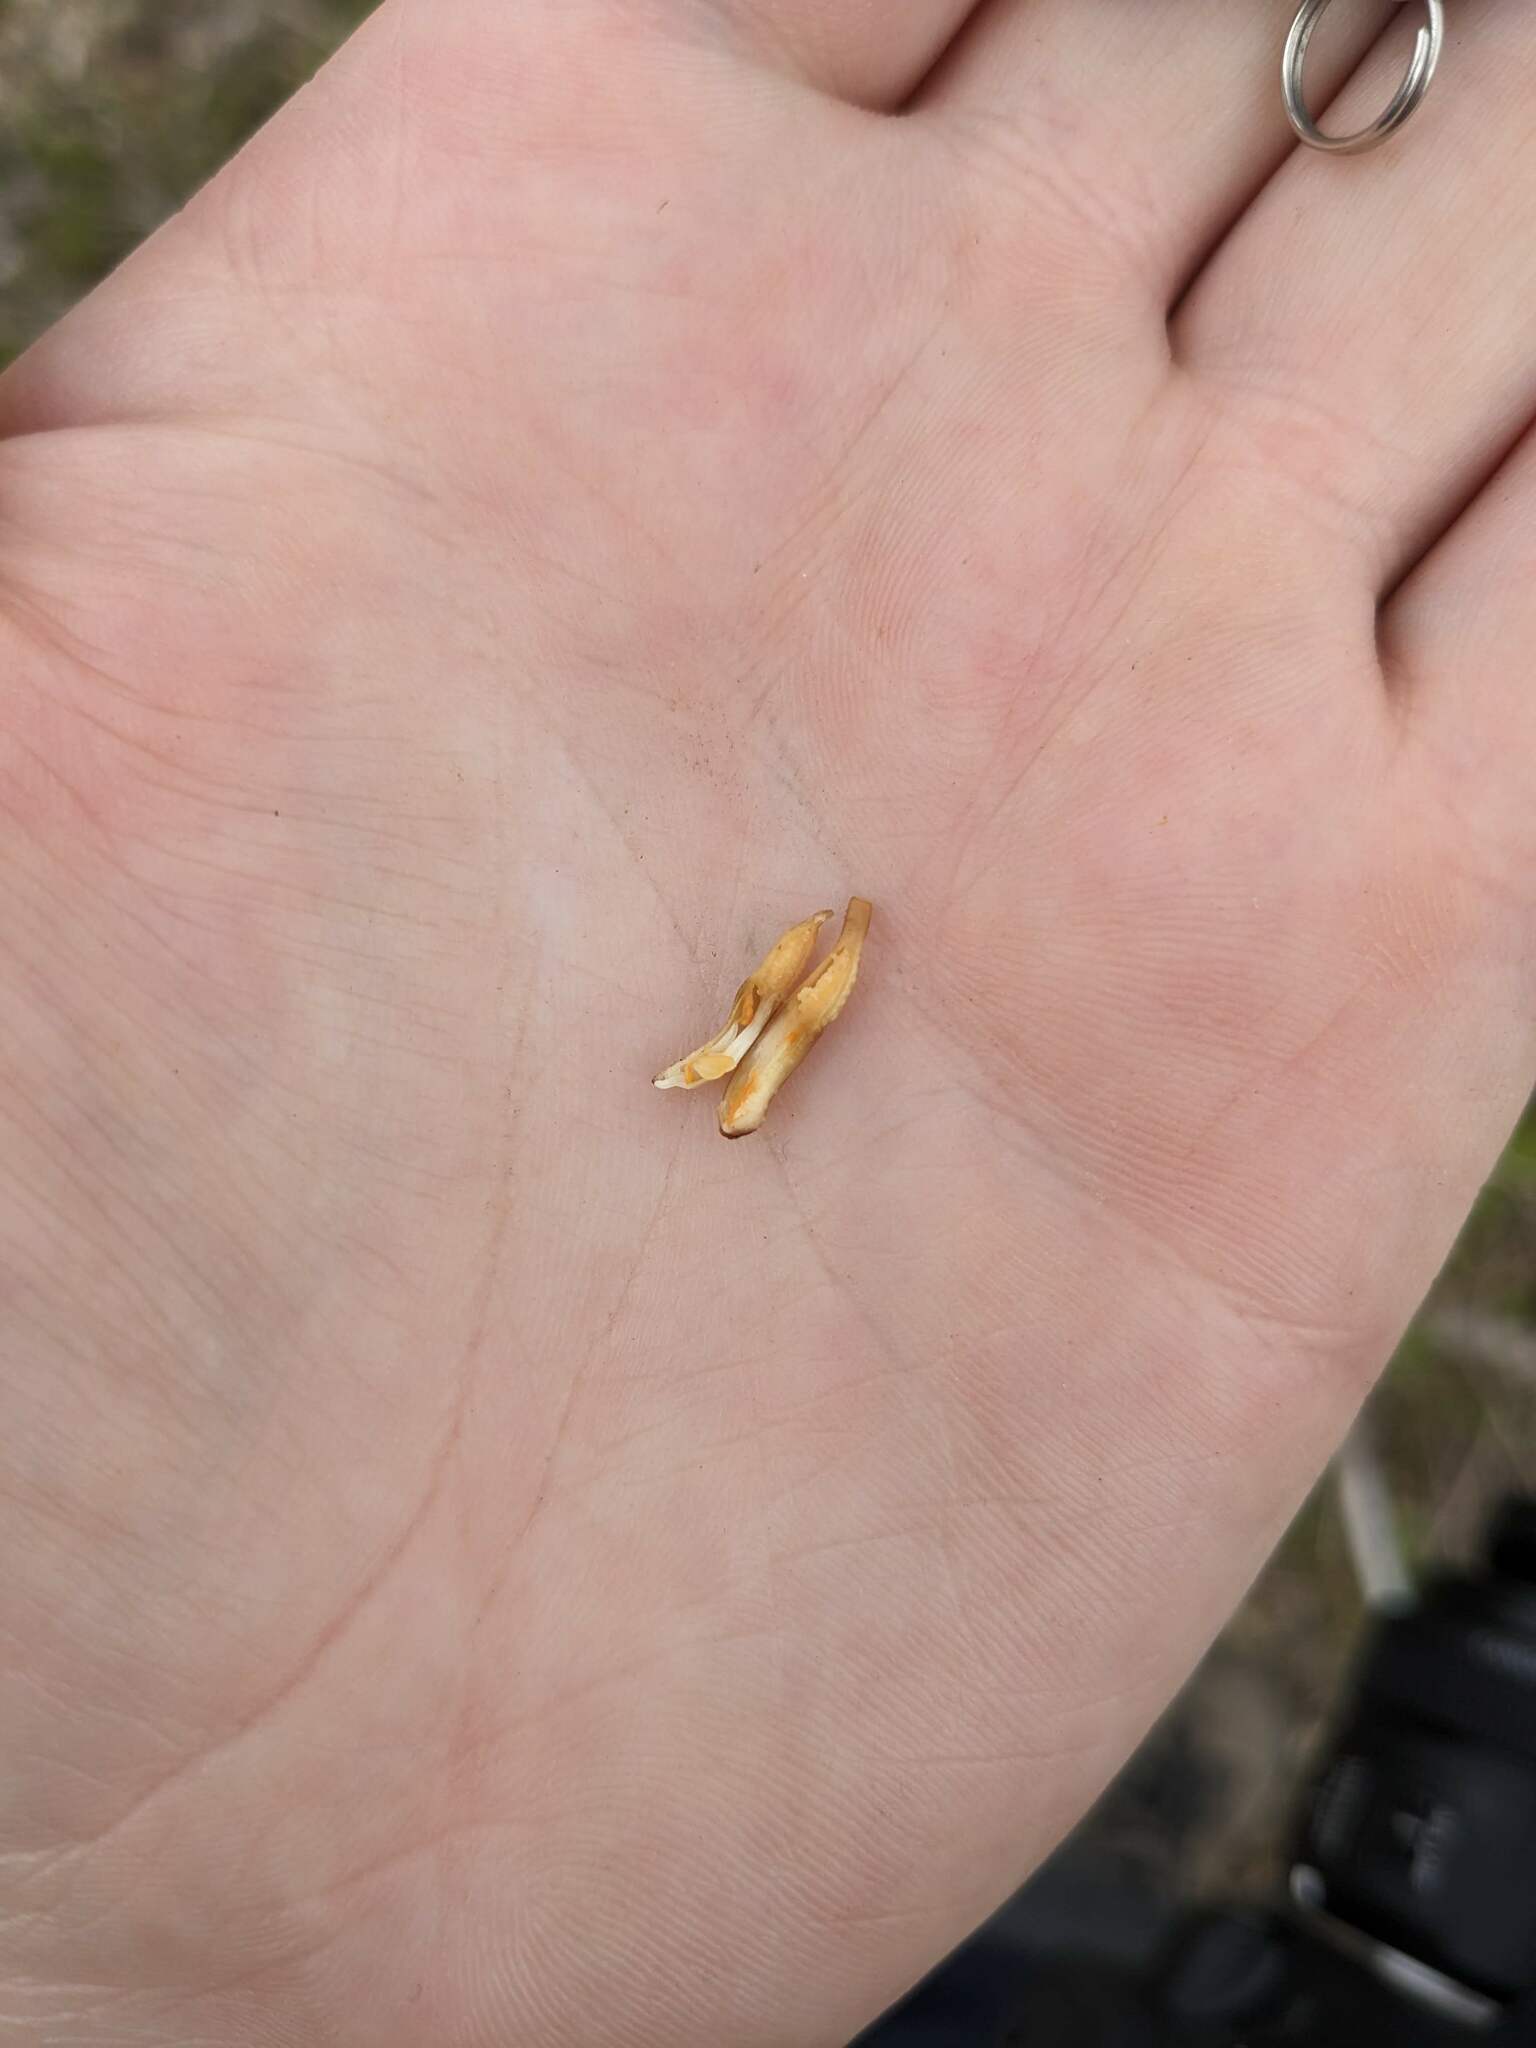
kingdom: Plantae
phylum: Tracheophyta
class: Liliopsida
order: Asparagales
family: Orchidaceae
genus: Gastrodia
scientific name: Gastrodia sesamoides
